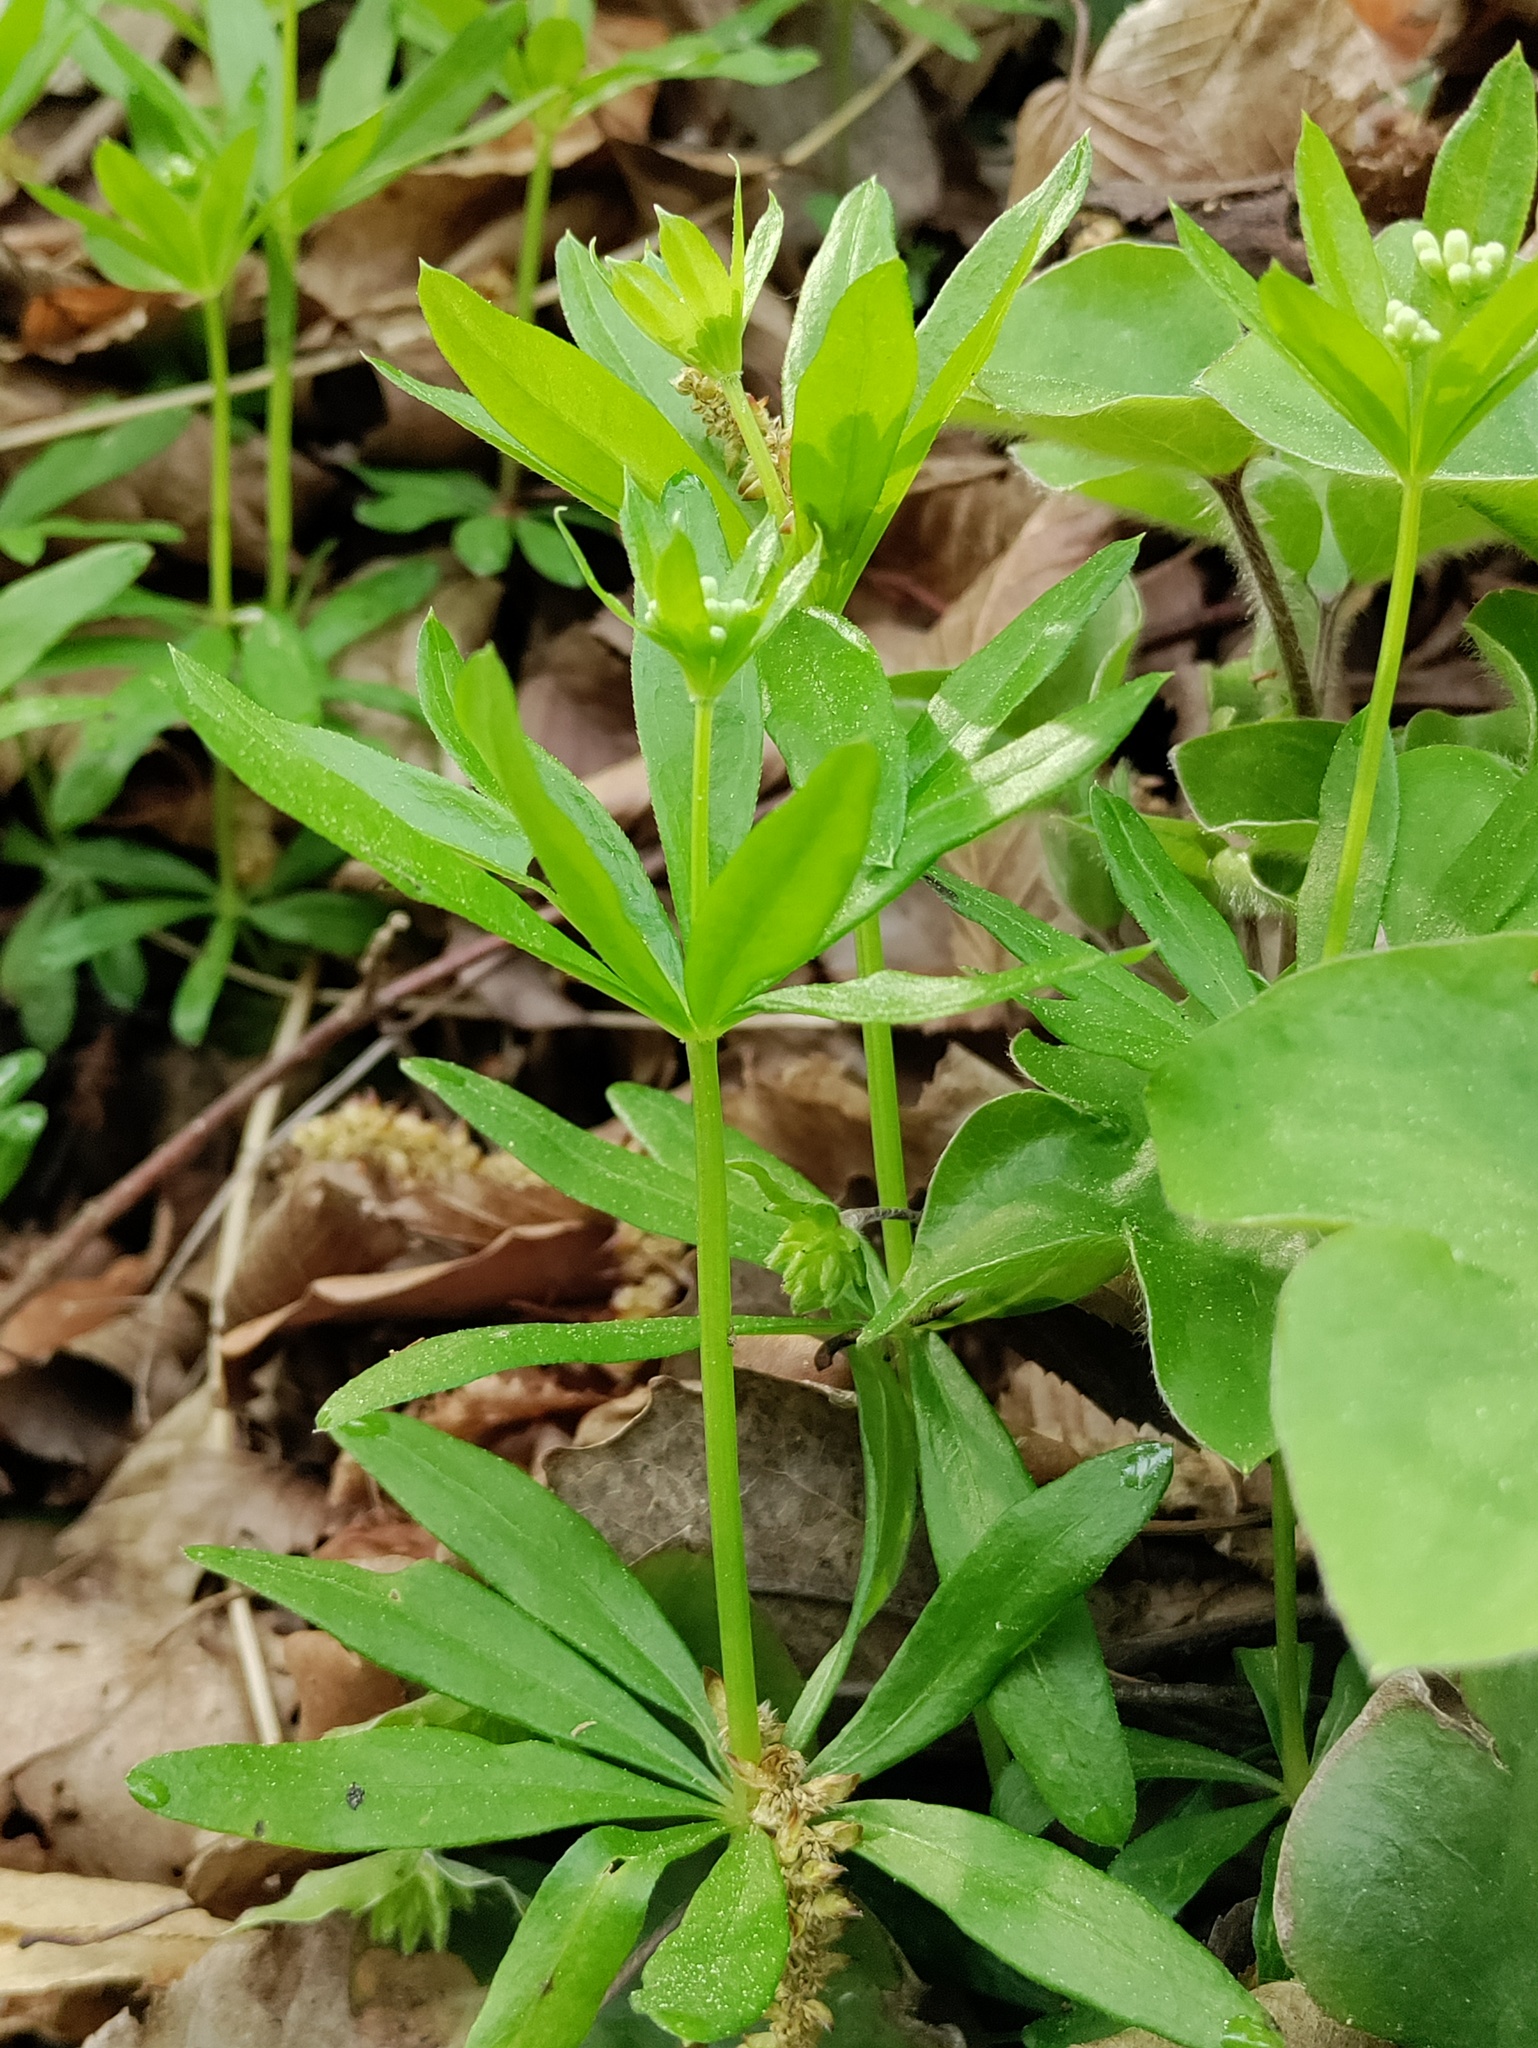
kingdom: Plantae
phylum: Tracheophyta
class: Magnoliopsida
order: Gentianales
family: Rubiaceae
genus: Galium
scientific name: Galium odoratum
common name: Sweet woodruff
